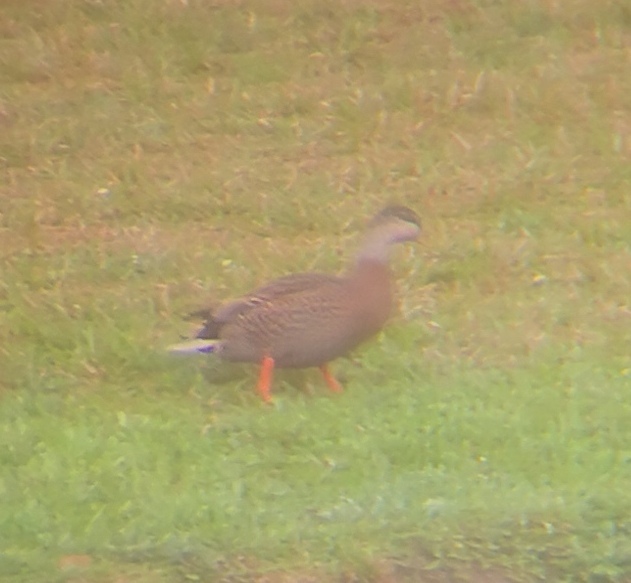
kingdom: Animalia
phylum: Chordata
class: Aves
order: Anseriformes
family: Anatidae
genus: Anas
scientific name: Anas
